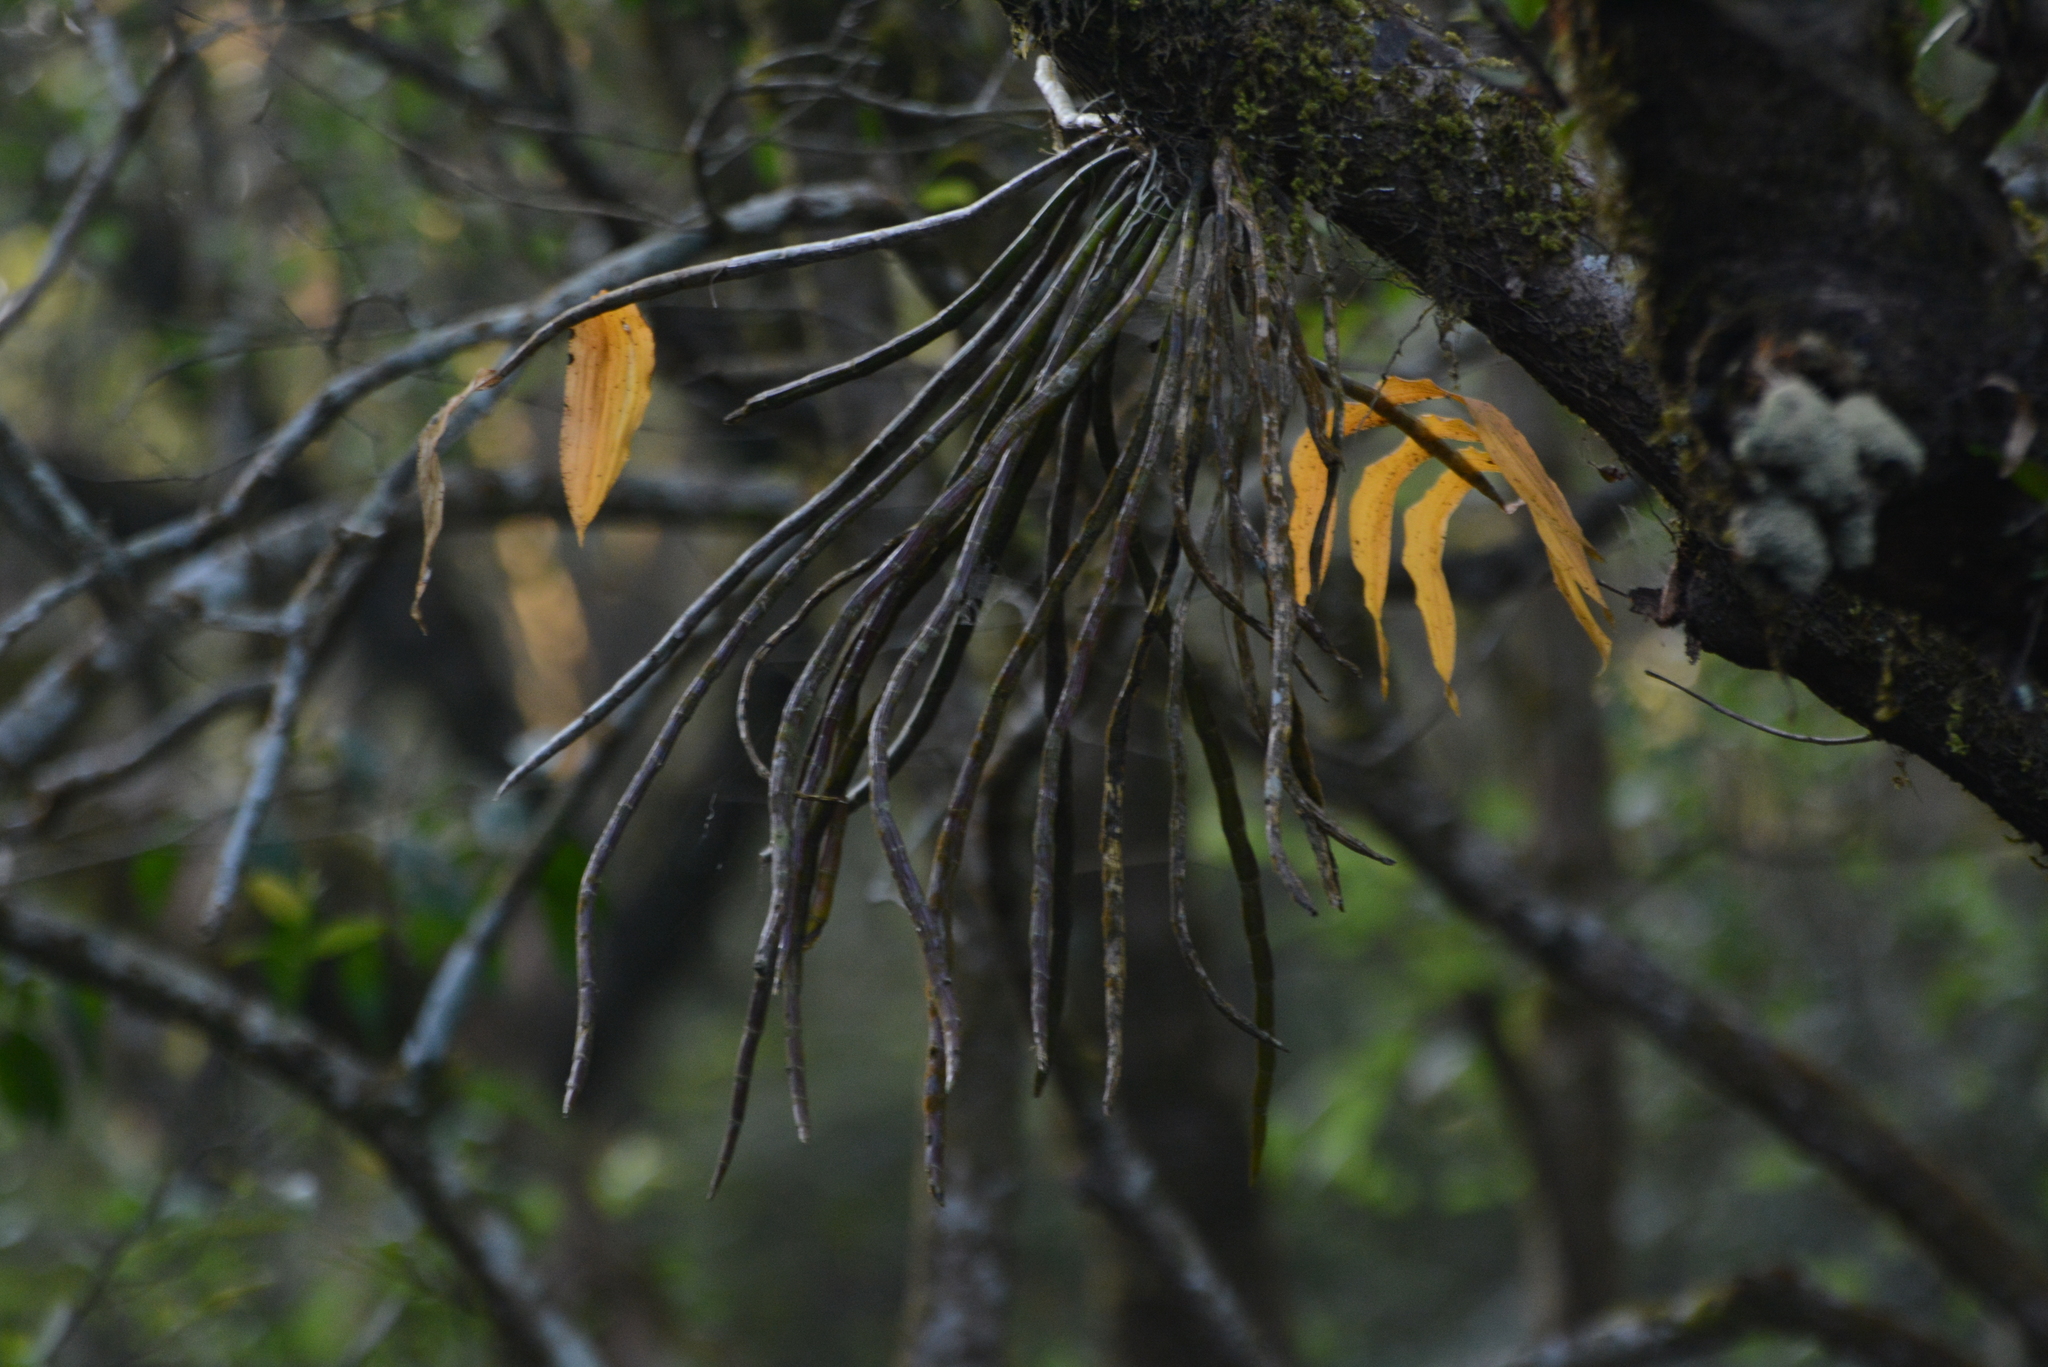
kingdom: Plantae
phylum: Tracheophyta
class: Liliopsida
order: Asparagales
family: Orchidaceae
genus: Dendrobium
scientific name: Dendrobium aqueum
